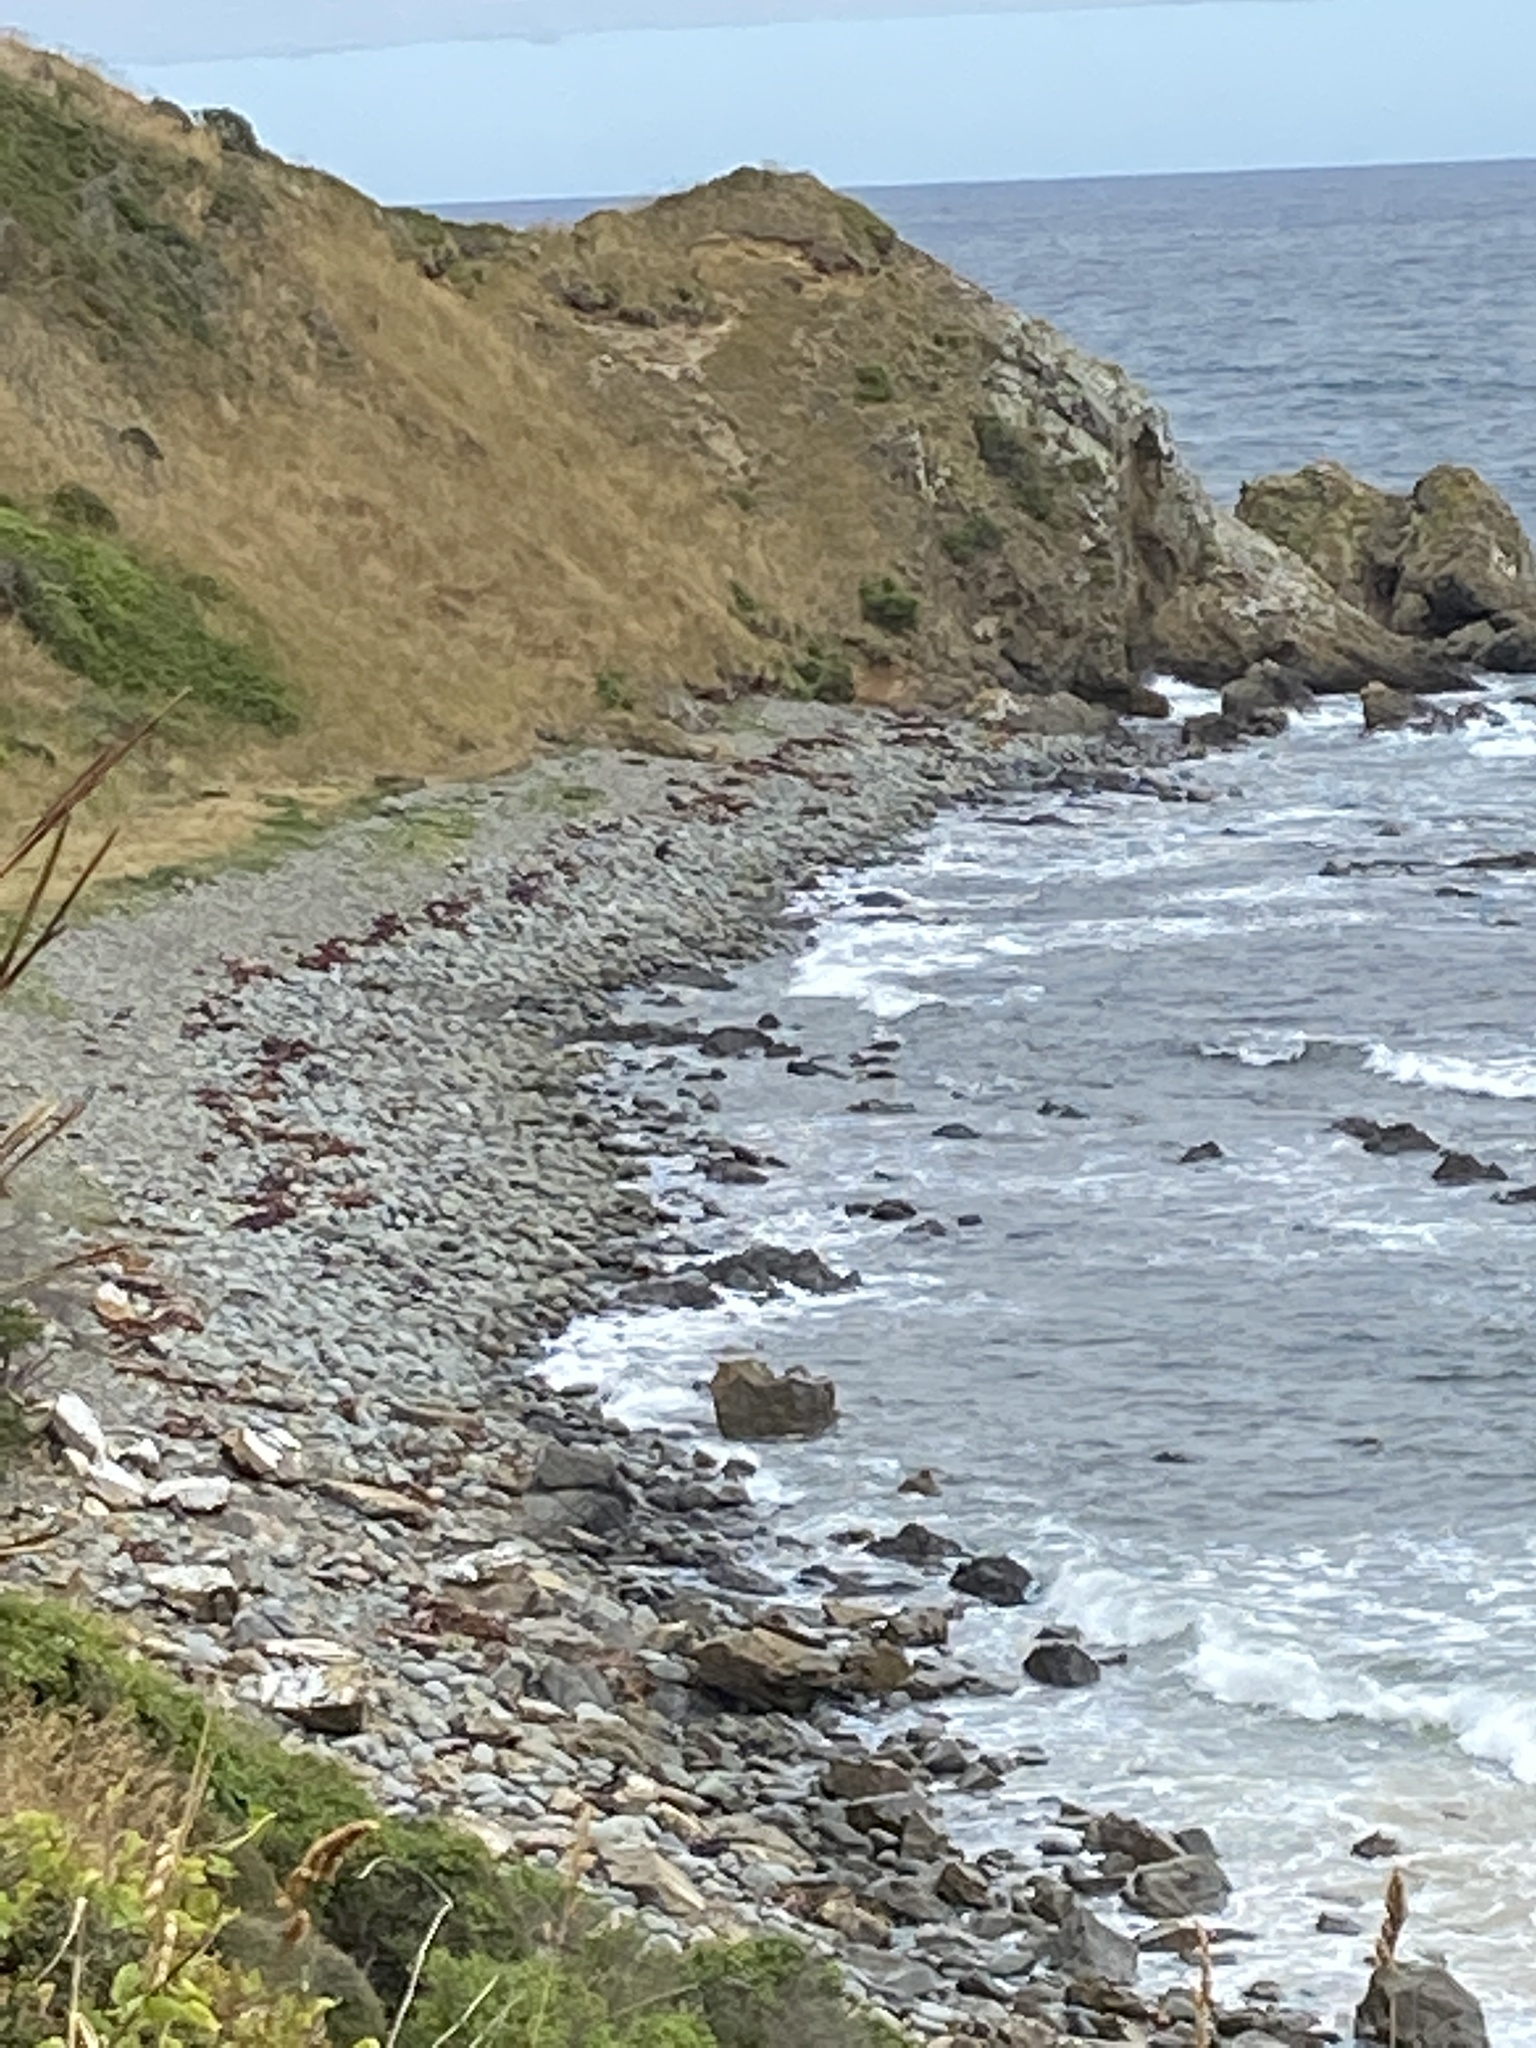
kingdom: Animalia
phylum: Chordata
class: Mammalia
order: Carnivora
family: Otariidae
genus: Arctocephalus
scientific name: Arctocephalus forsteri
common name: New zealand fur seal
